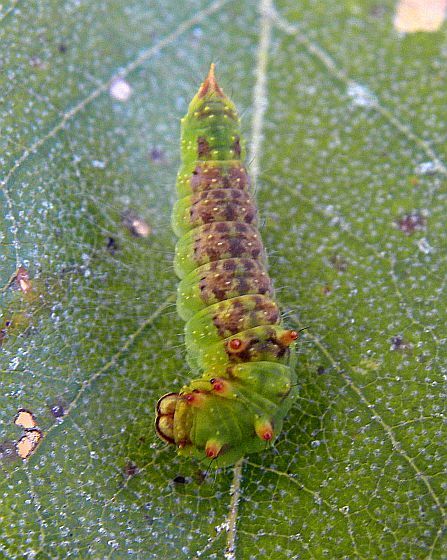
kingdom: Animalia
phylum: Arthropoda
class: Insecta
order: Lepidoptera
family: Drepanidae
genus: Drepana
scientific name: Drepana arcuata
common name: Arched hooktip moth
